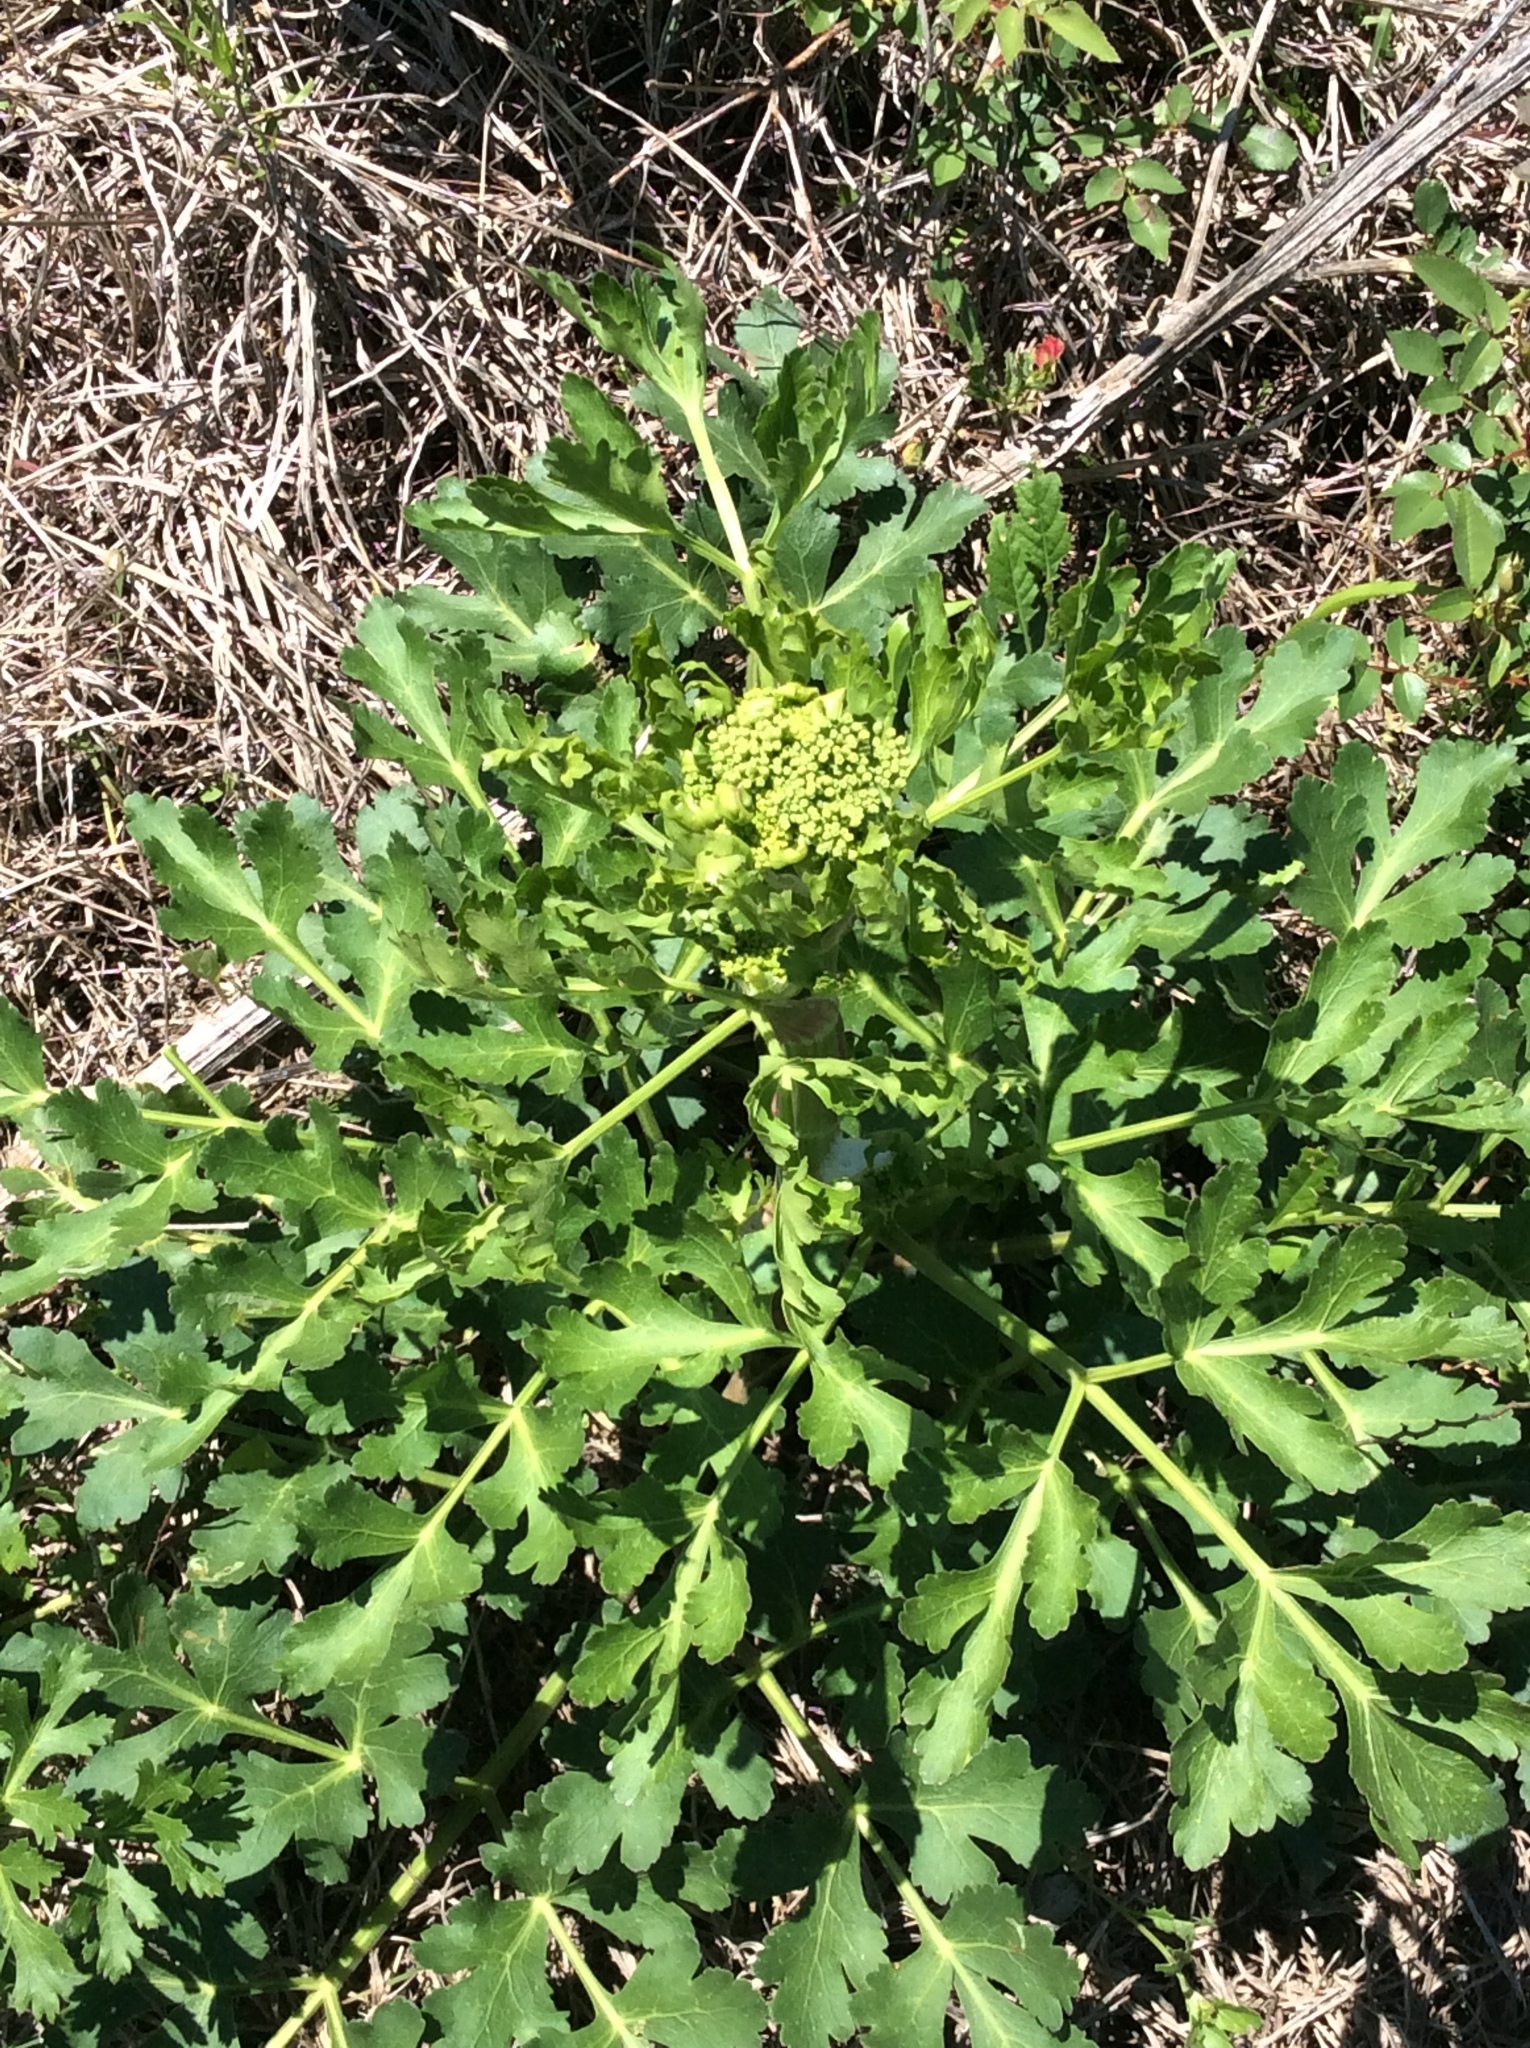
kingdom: Plantae
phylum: Tracheophyta
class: Magnoliopsida
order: Apiales
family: Apiaceae
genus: Polytaenia
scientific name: Polytaenia texana
